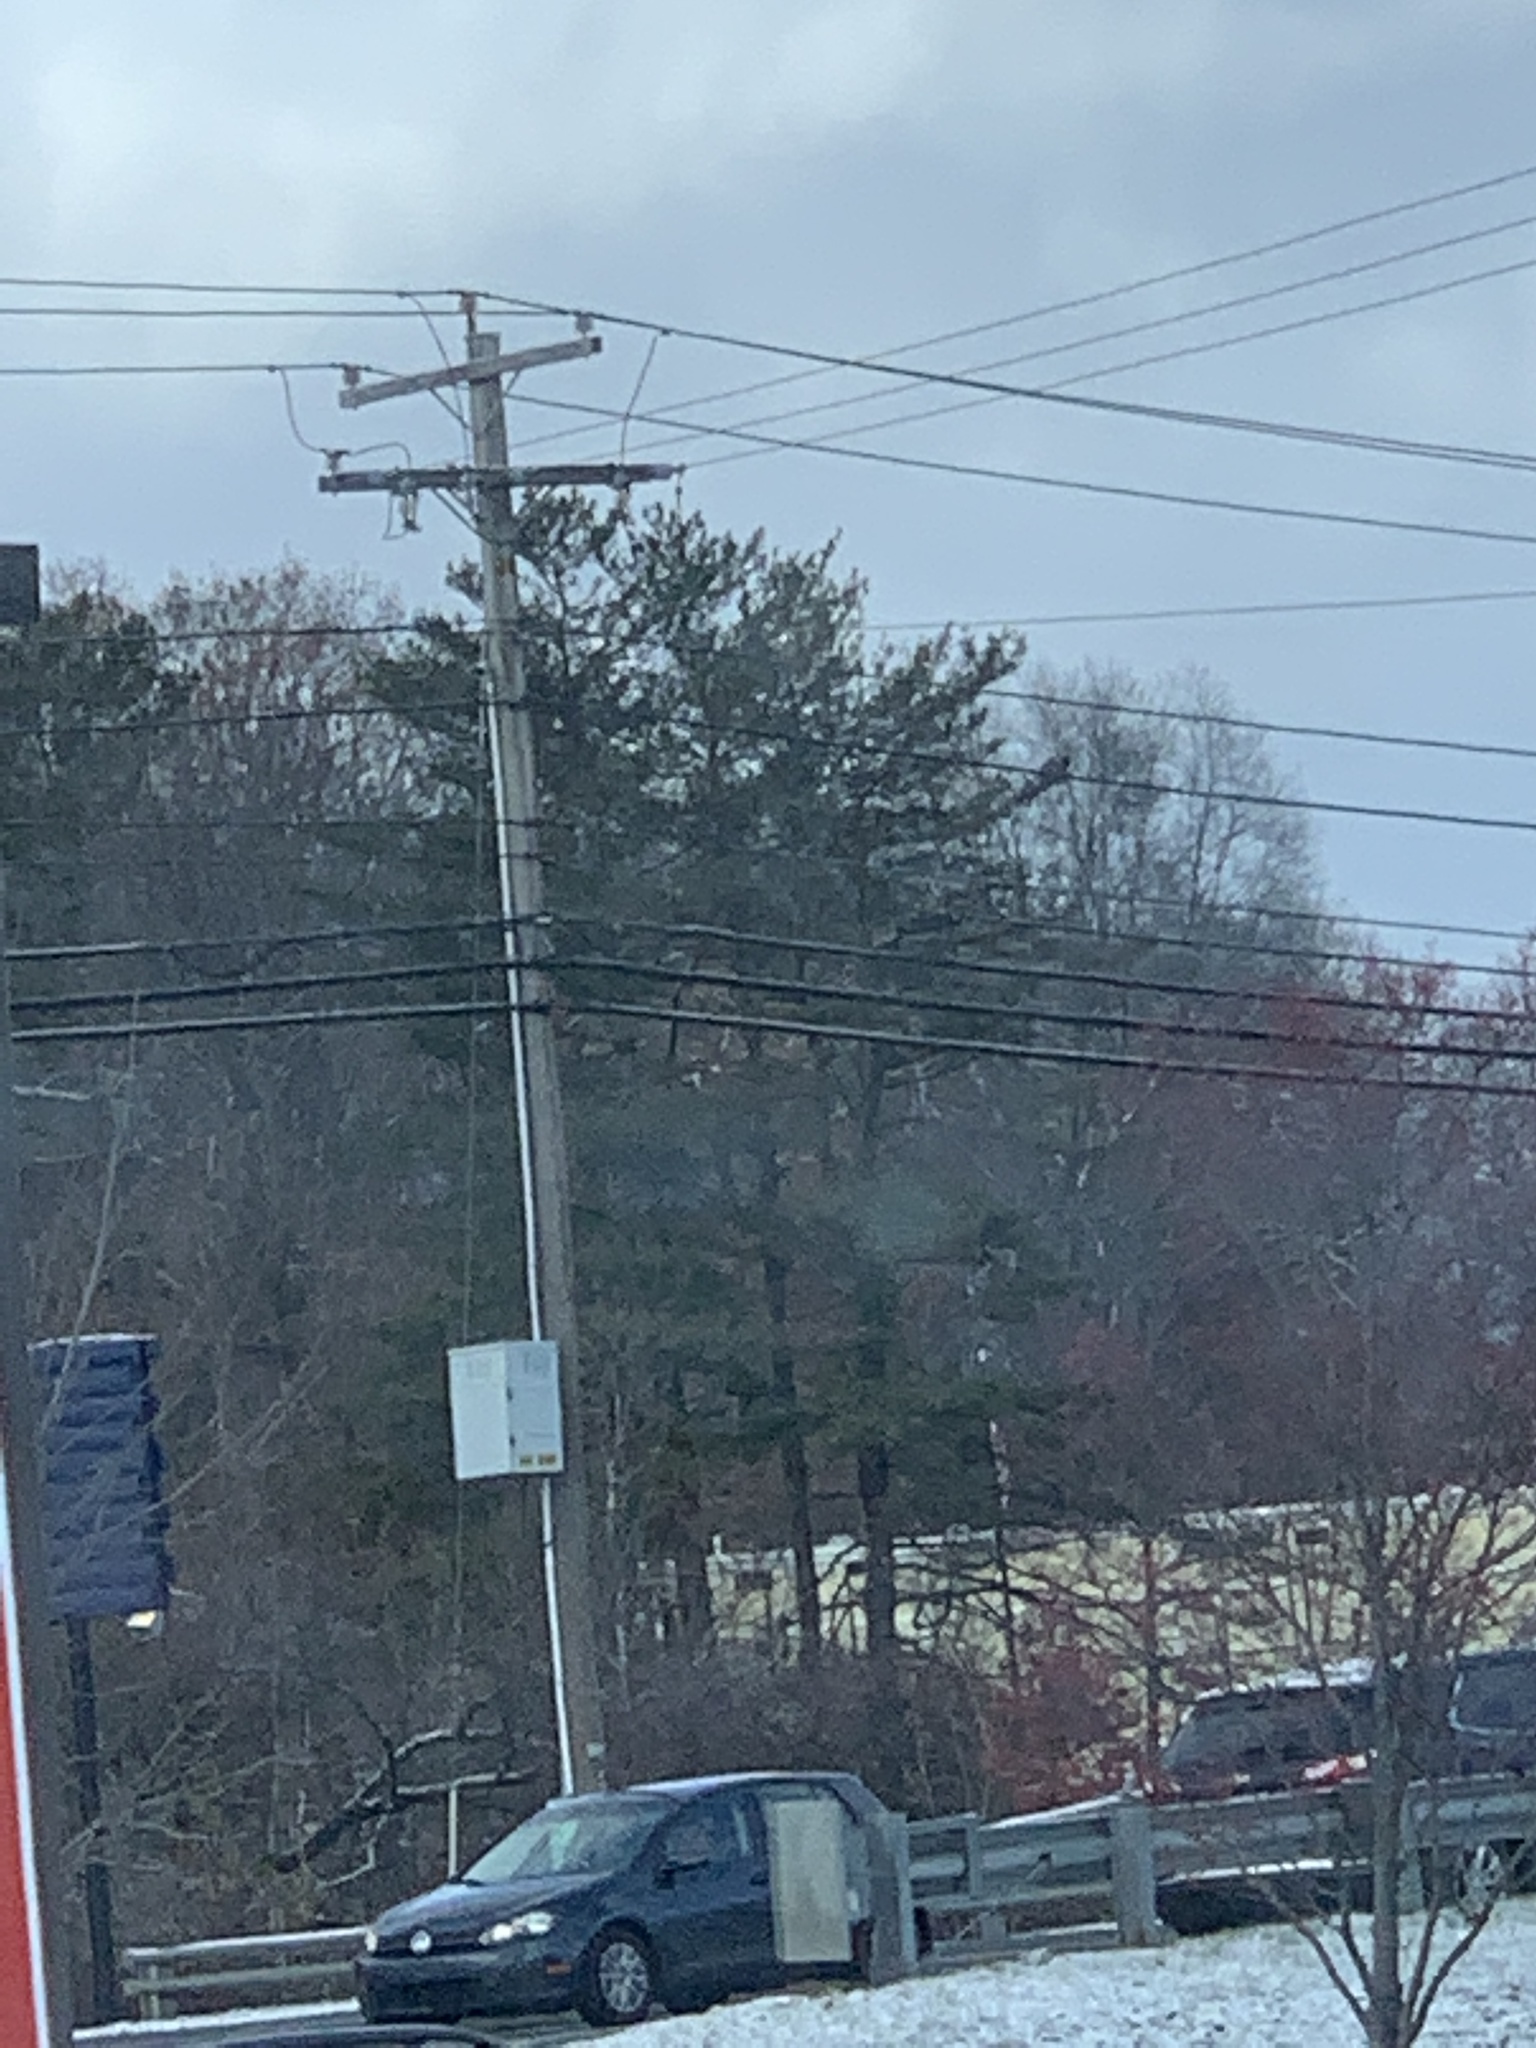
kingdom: Plantae
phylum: Tracheophyta
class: Pinopsida
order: Pinales
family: Pinaceae
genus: Pinus
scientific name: Pinus strobus
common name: Weymouth pine
